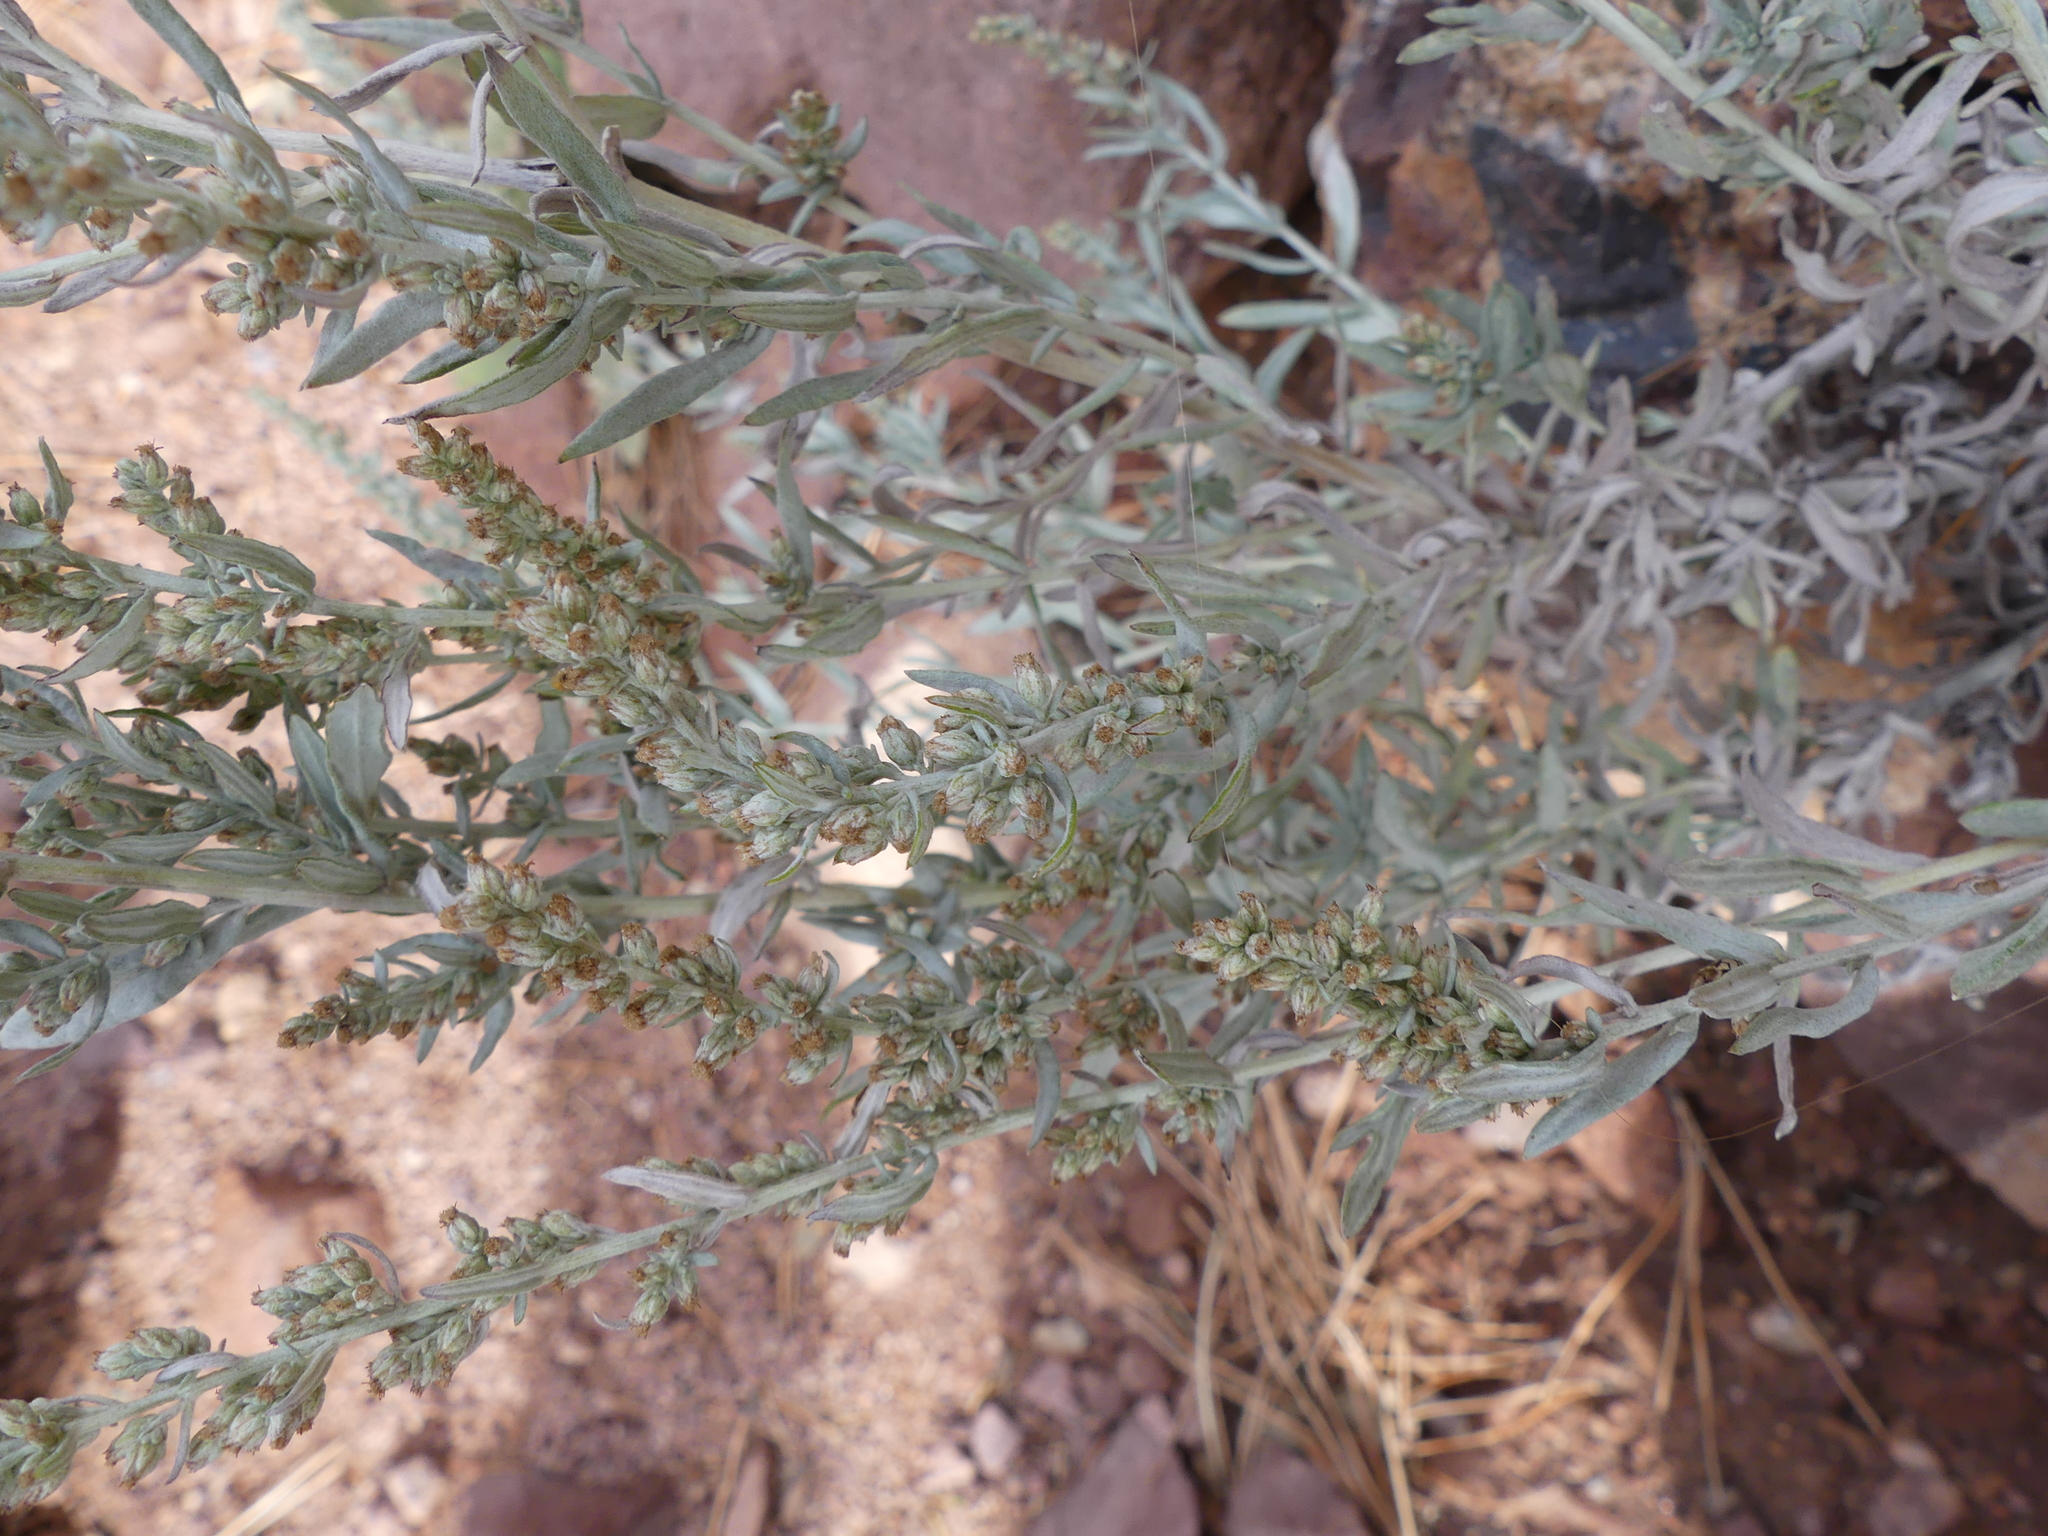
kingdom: Plantae
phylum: Tracheophyta
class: Magnoliopsida
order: Asterales
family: Asteraceae
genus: Artemisia
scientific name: Artemisia ludoviciana
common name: Western mugwort
